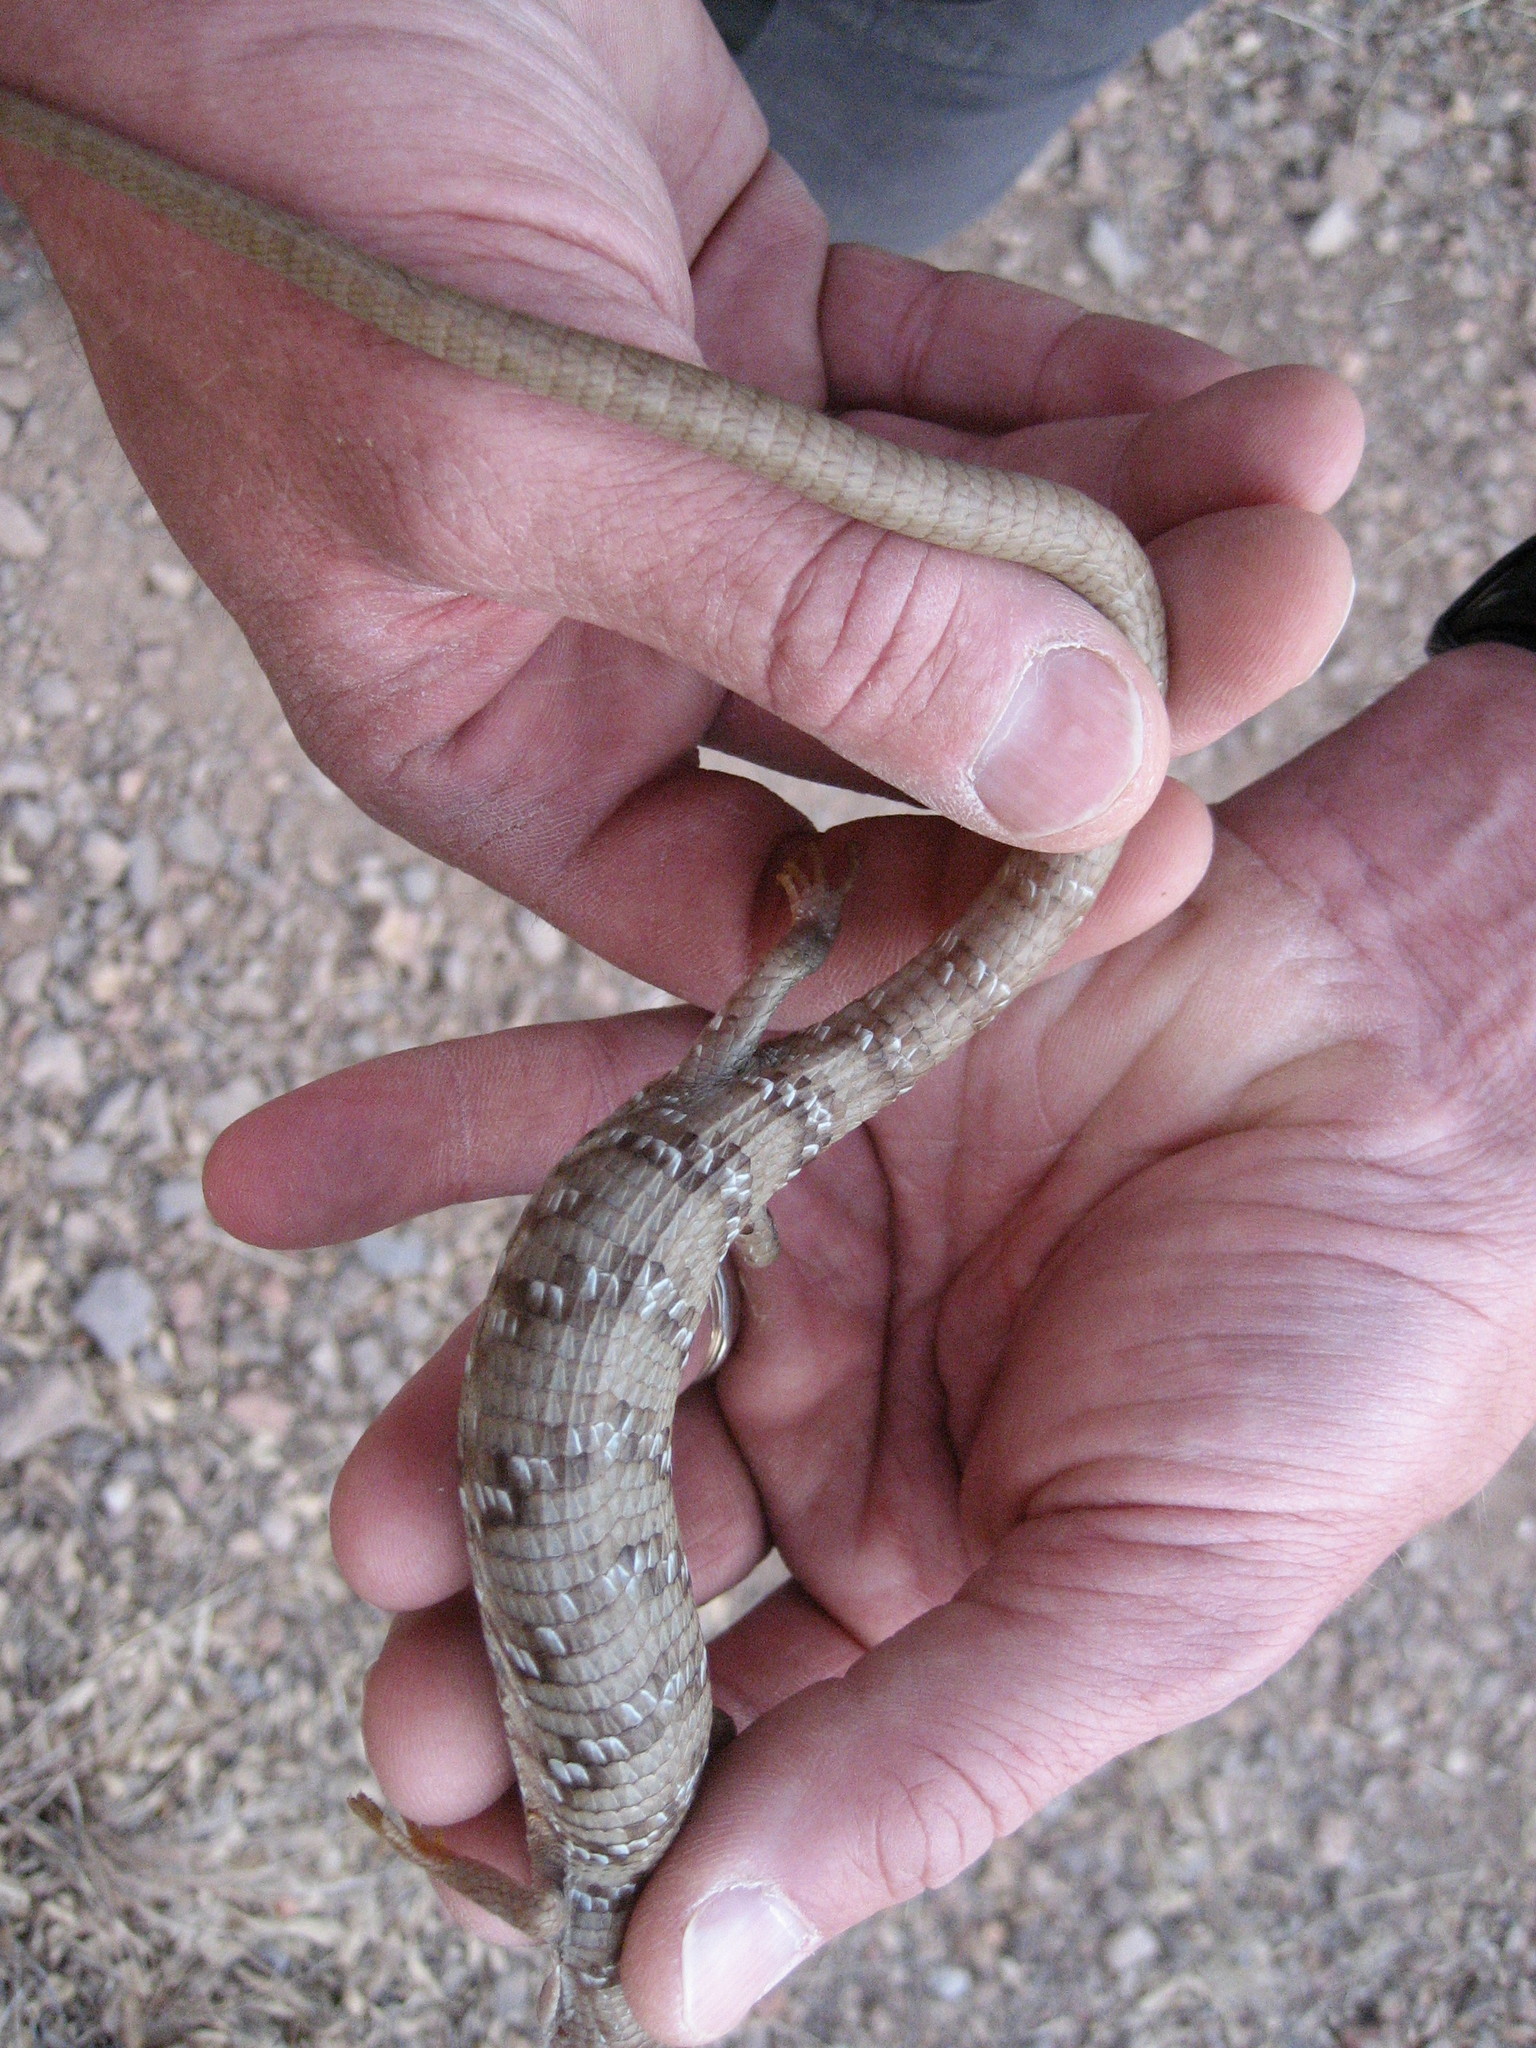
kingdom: Animalia
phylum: Chordata
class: Squamata
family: Anguidae
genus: Gerrhonotus
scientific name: Gerrhonotus infernalis
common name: Texas alligator lizard
